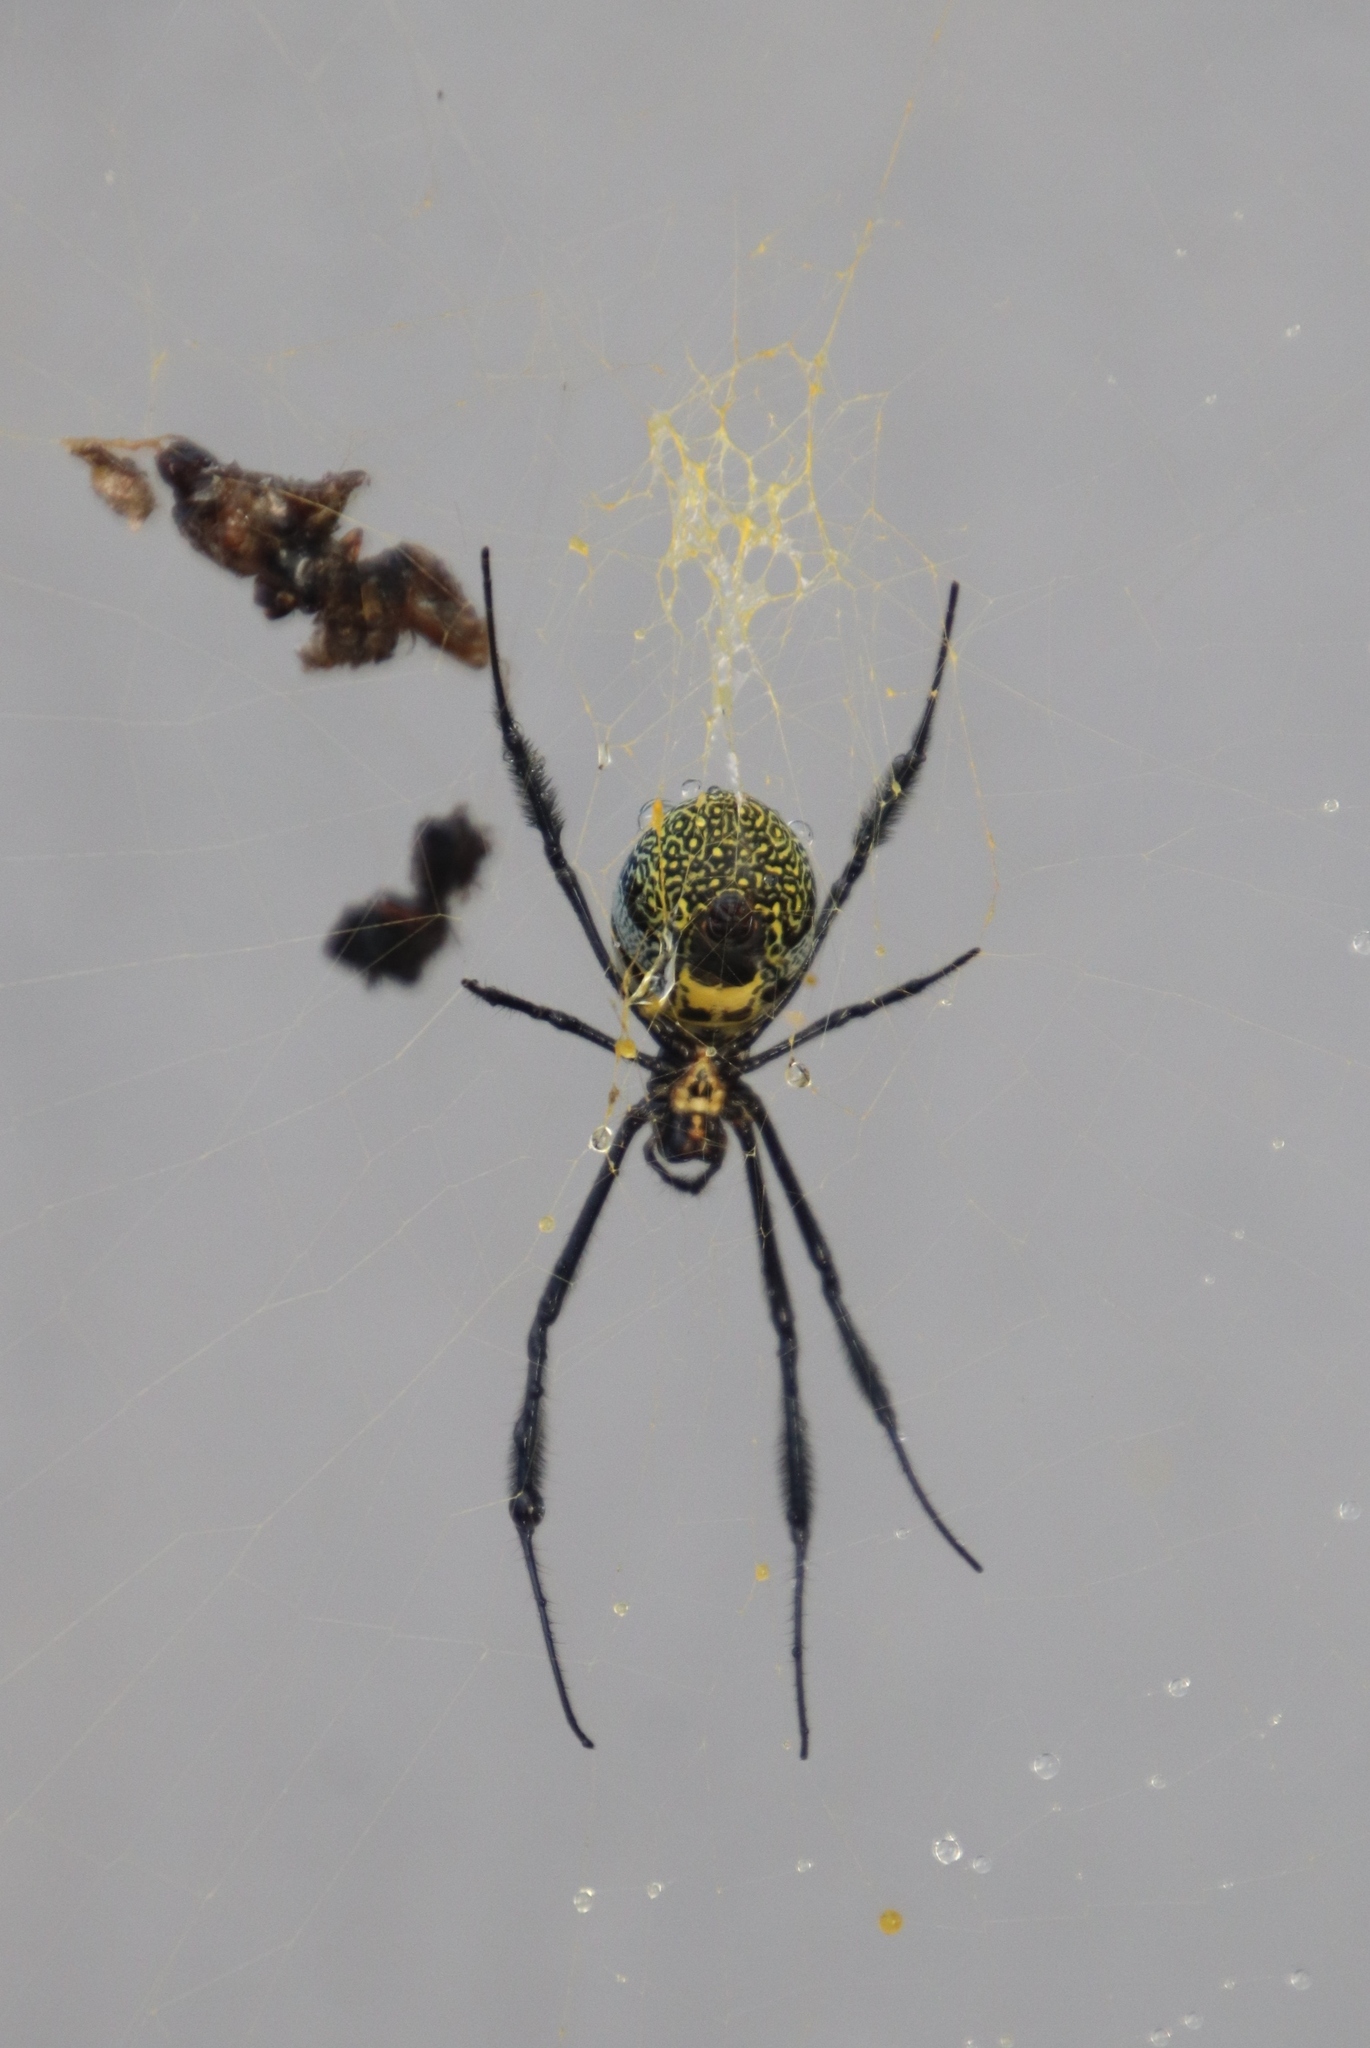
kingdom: Animalia
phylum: Arthropoda
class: Arachnida
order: Araneae
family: Araneidae
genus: Trichonephila
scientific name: Trichonephila fenestrata
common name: Hairy golden orb weaver
